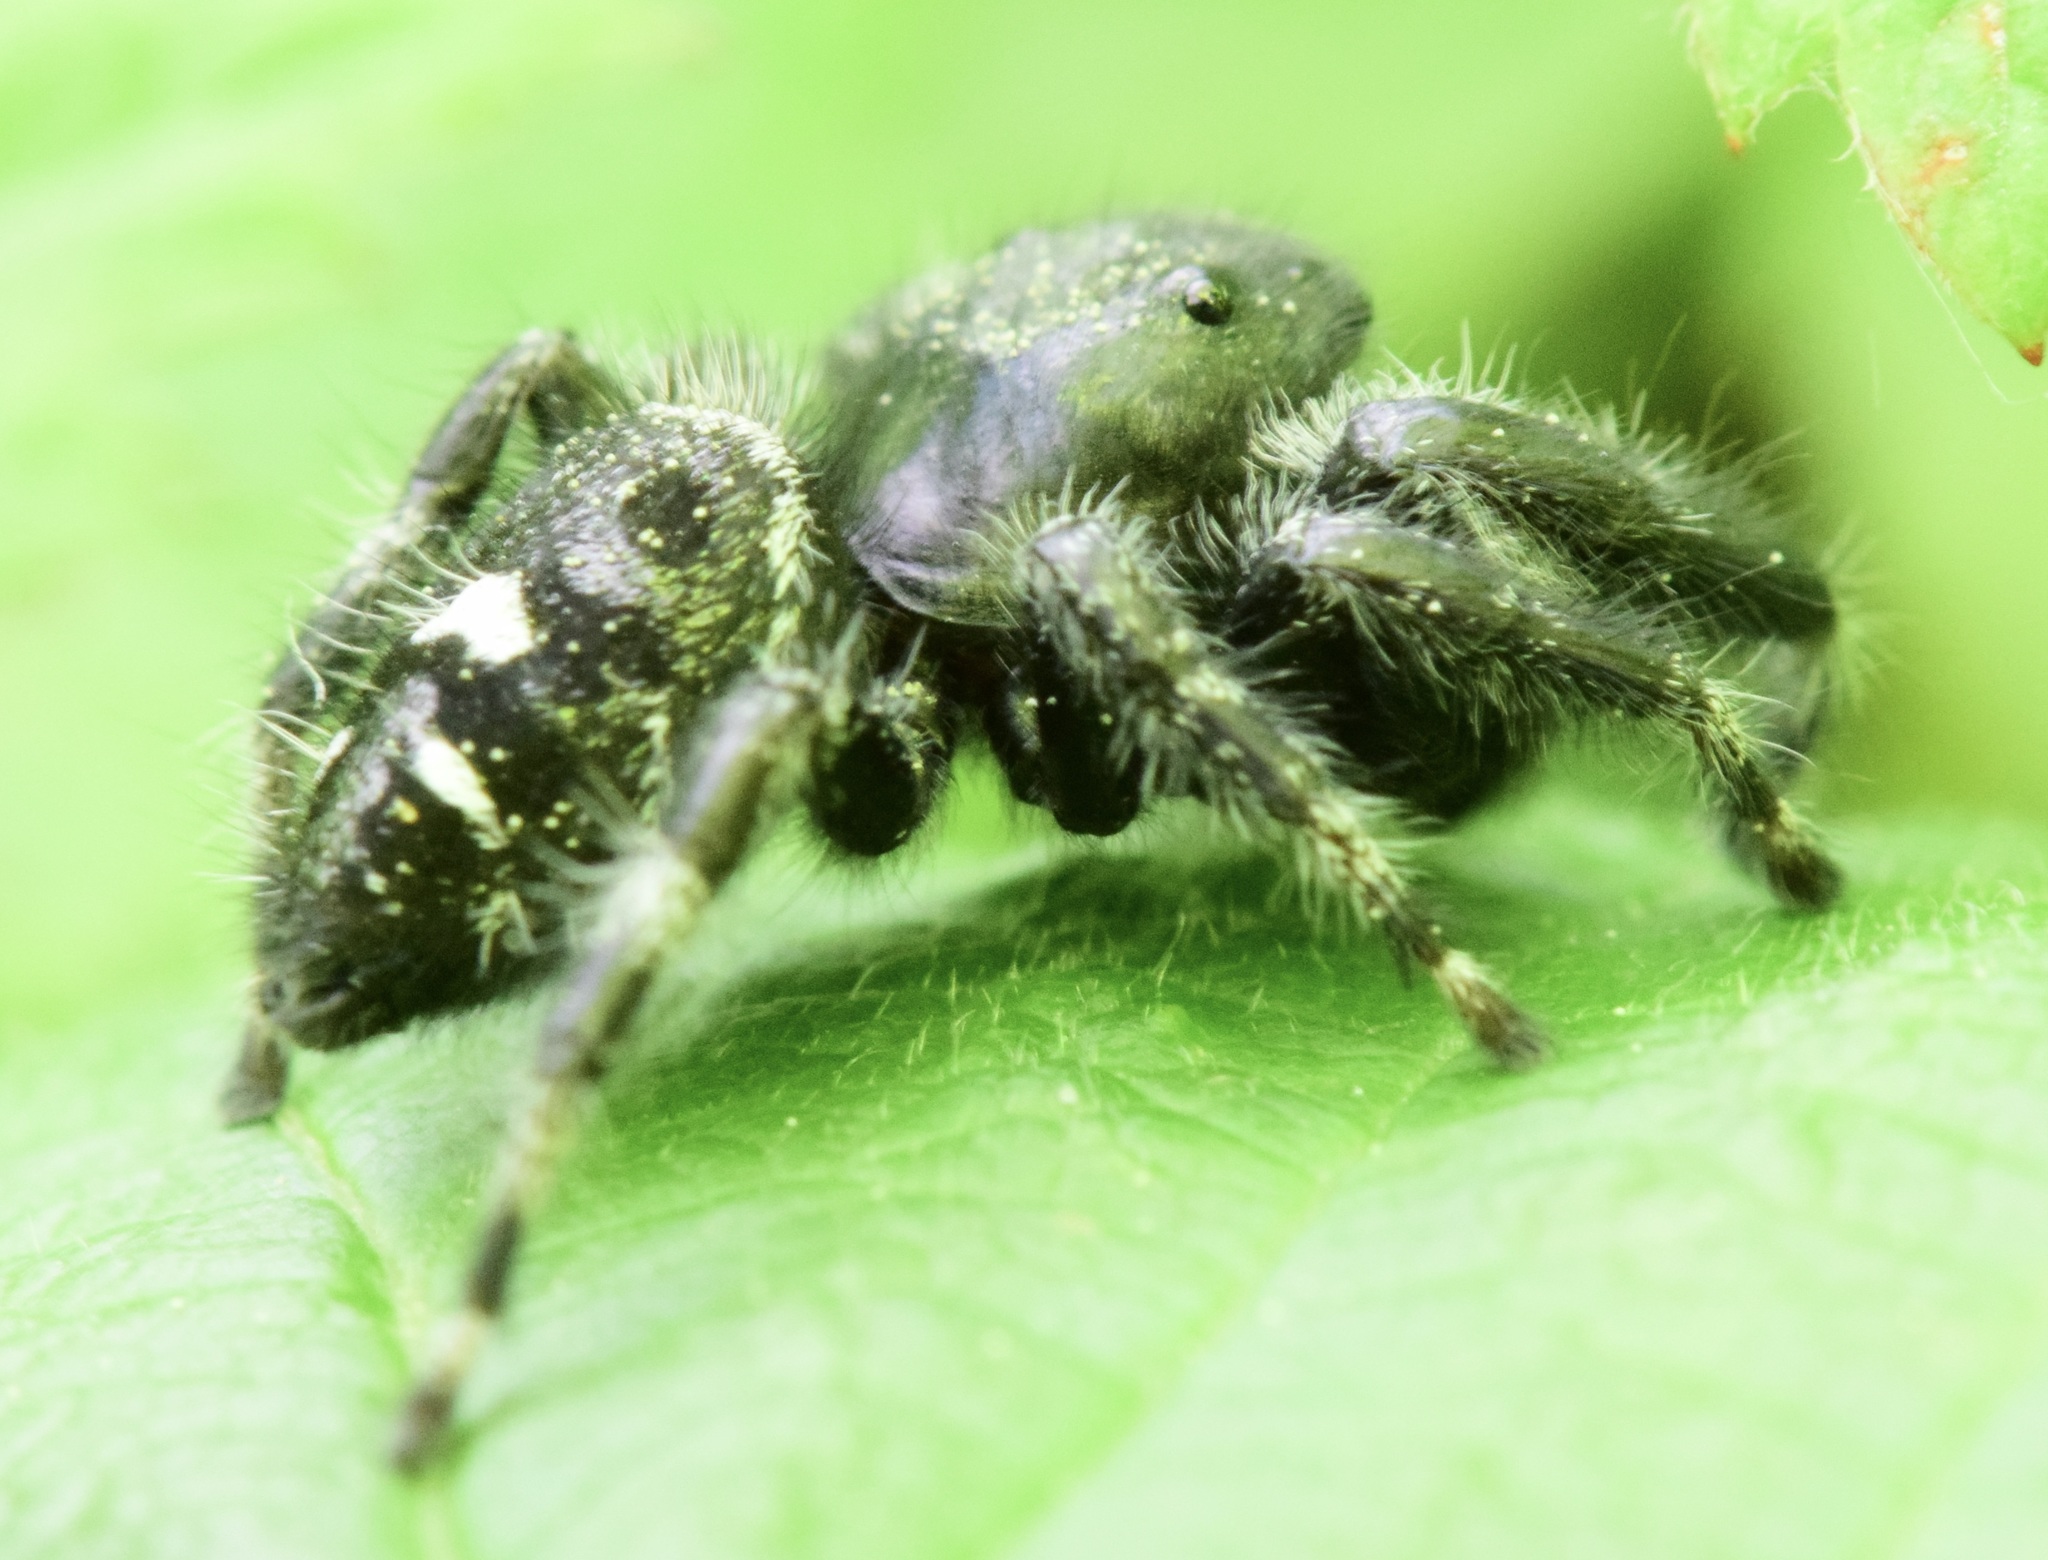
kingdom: Animalia
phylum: Arthropoda
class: Arachnida
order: Araneae
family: Salticidae
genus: Phidippus
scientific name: Phidippus audax
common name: Bold jumper
